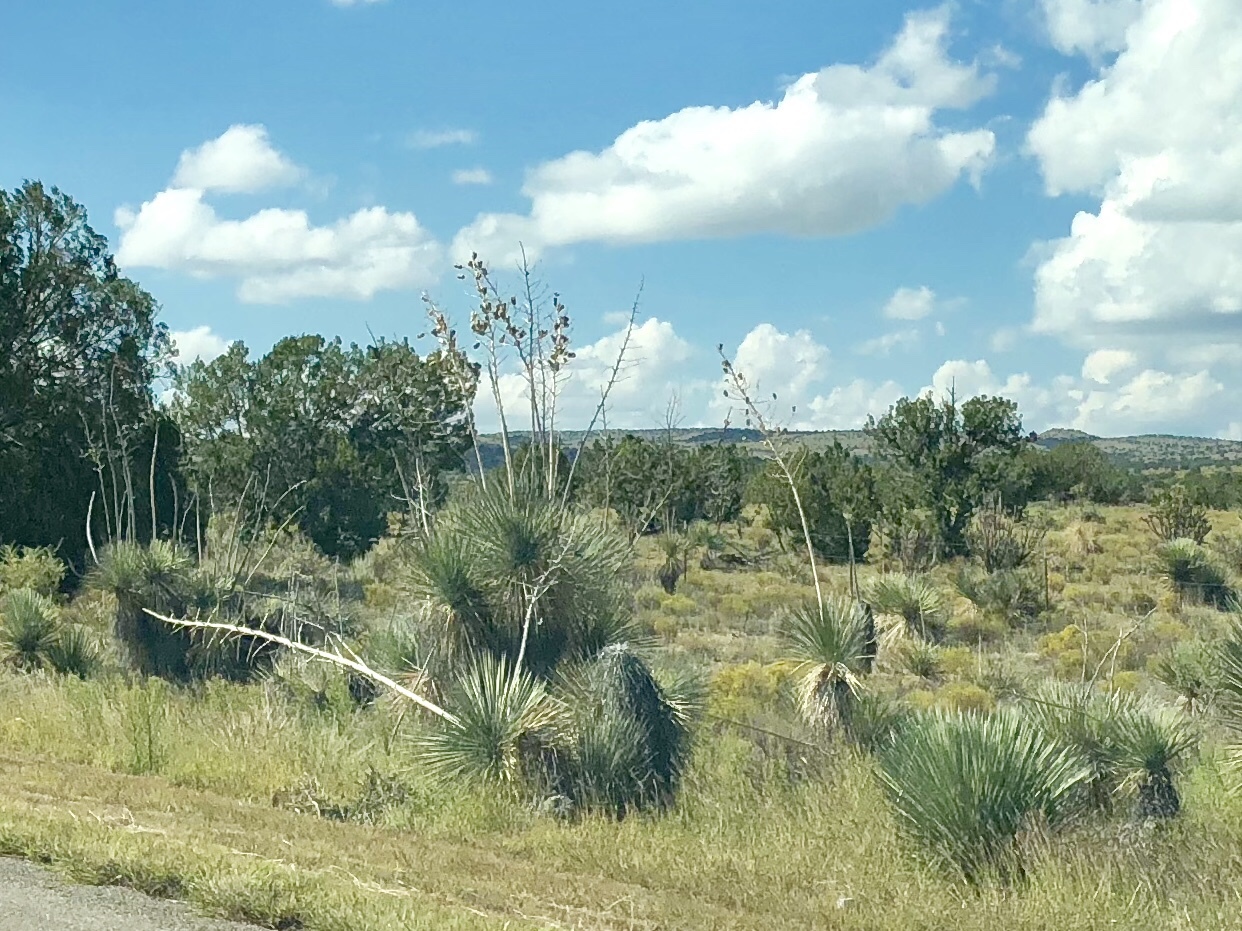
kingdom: Plantae
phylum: Tracheophyta
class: Liliopsida
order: Asparagales
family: Asparagaceae
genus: Yucca
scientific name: Yucca elata
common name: Palmella
